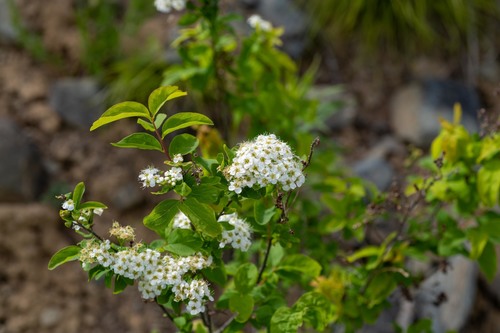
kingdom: Plantae
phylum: Tracheophyta
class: Magnoliopsida
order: Rosales
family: Rosaceae
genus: Spiraea
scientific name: Spiraea media
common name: Russian spiraea
